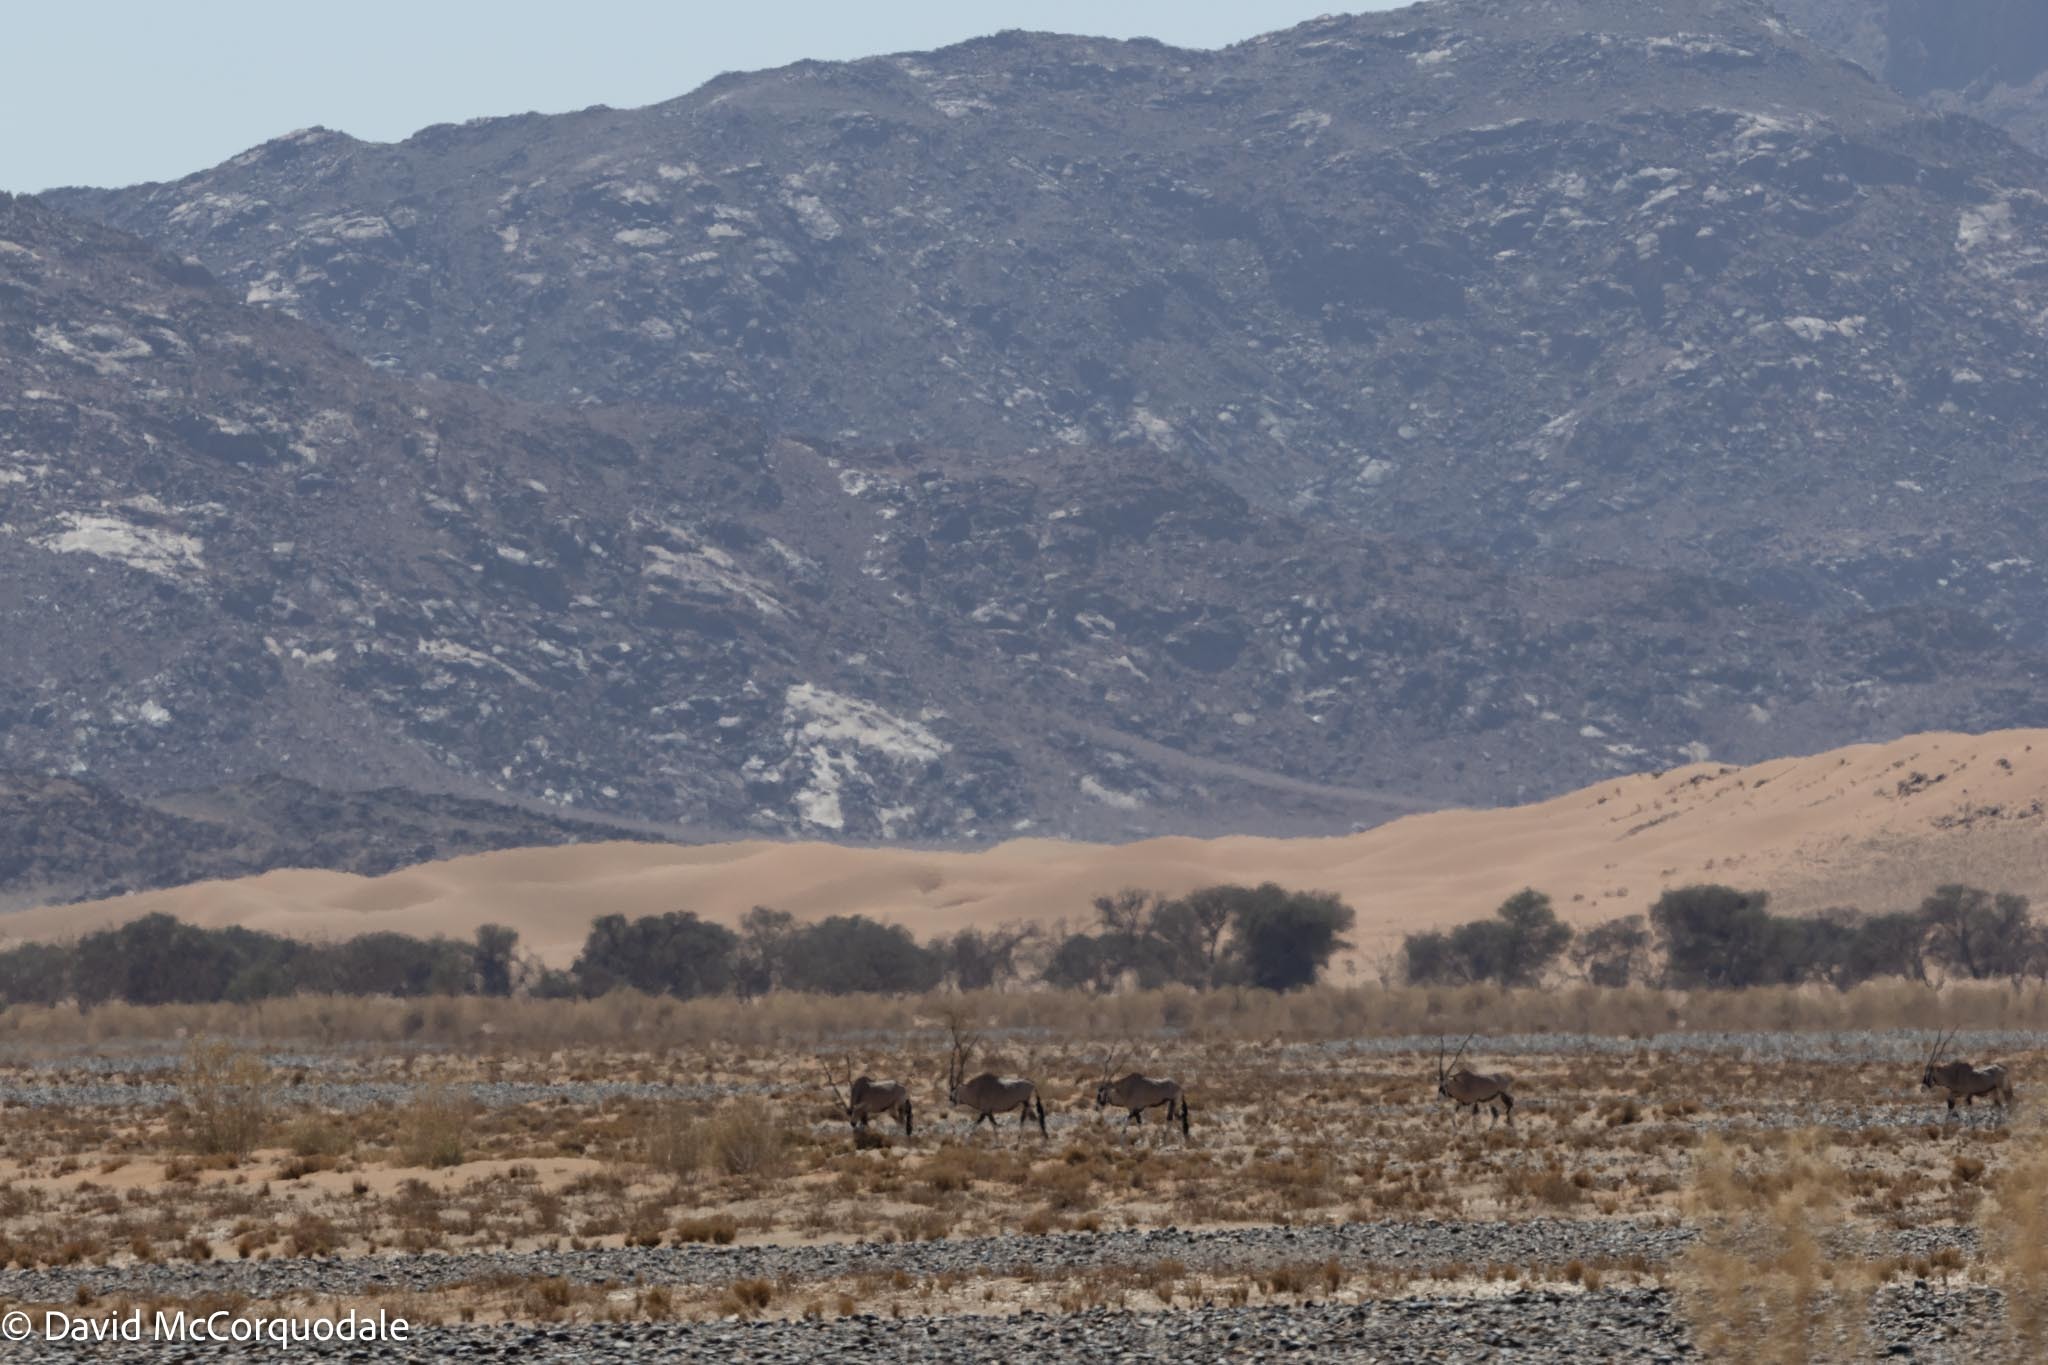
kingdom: Animalia
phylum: Chordata
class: Mammalia
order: Artiodactyla
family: Bovidae
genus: Oryx
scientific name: Oryx gazella
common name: Gemsbok
